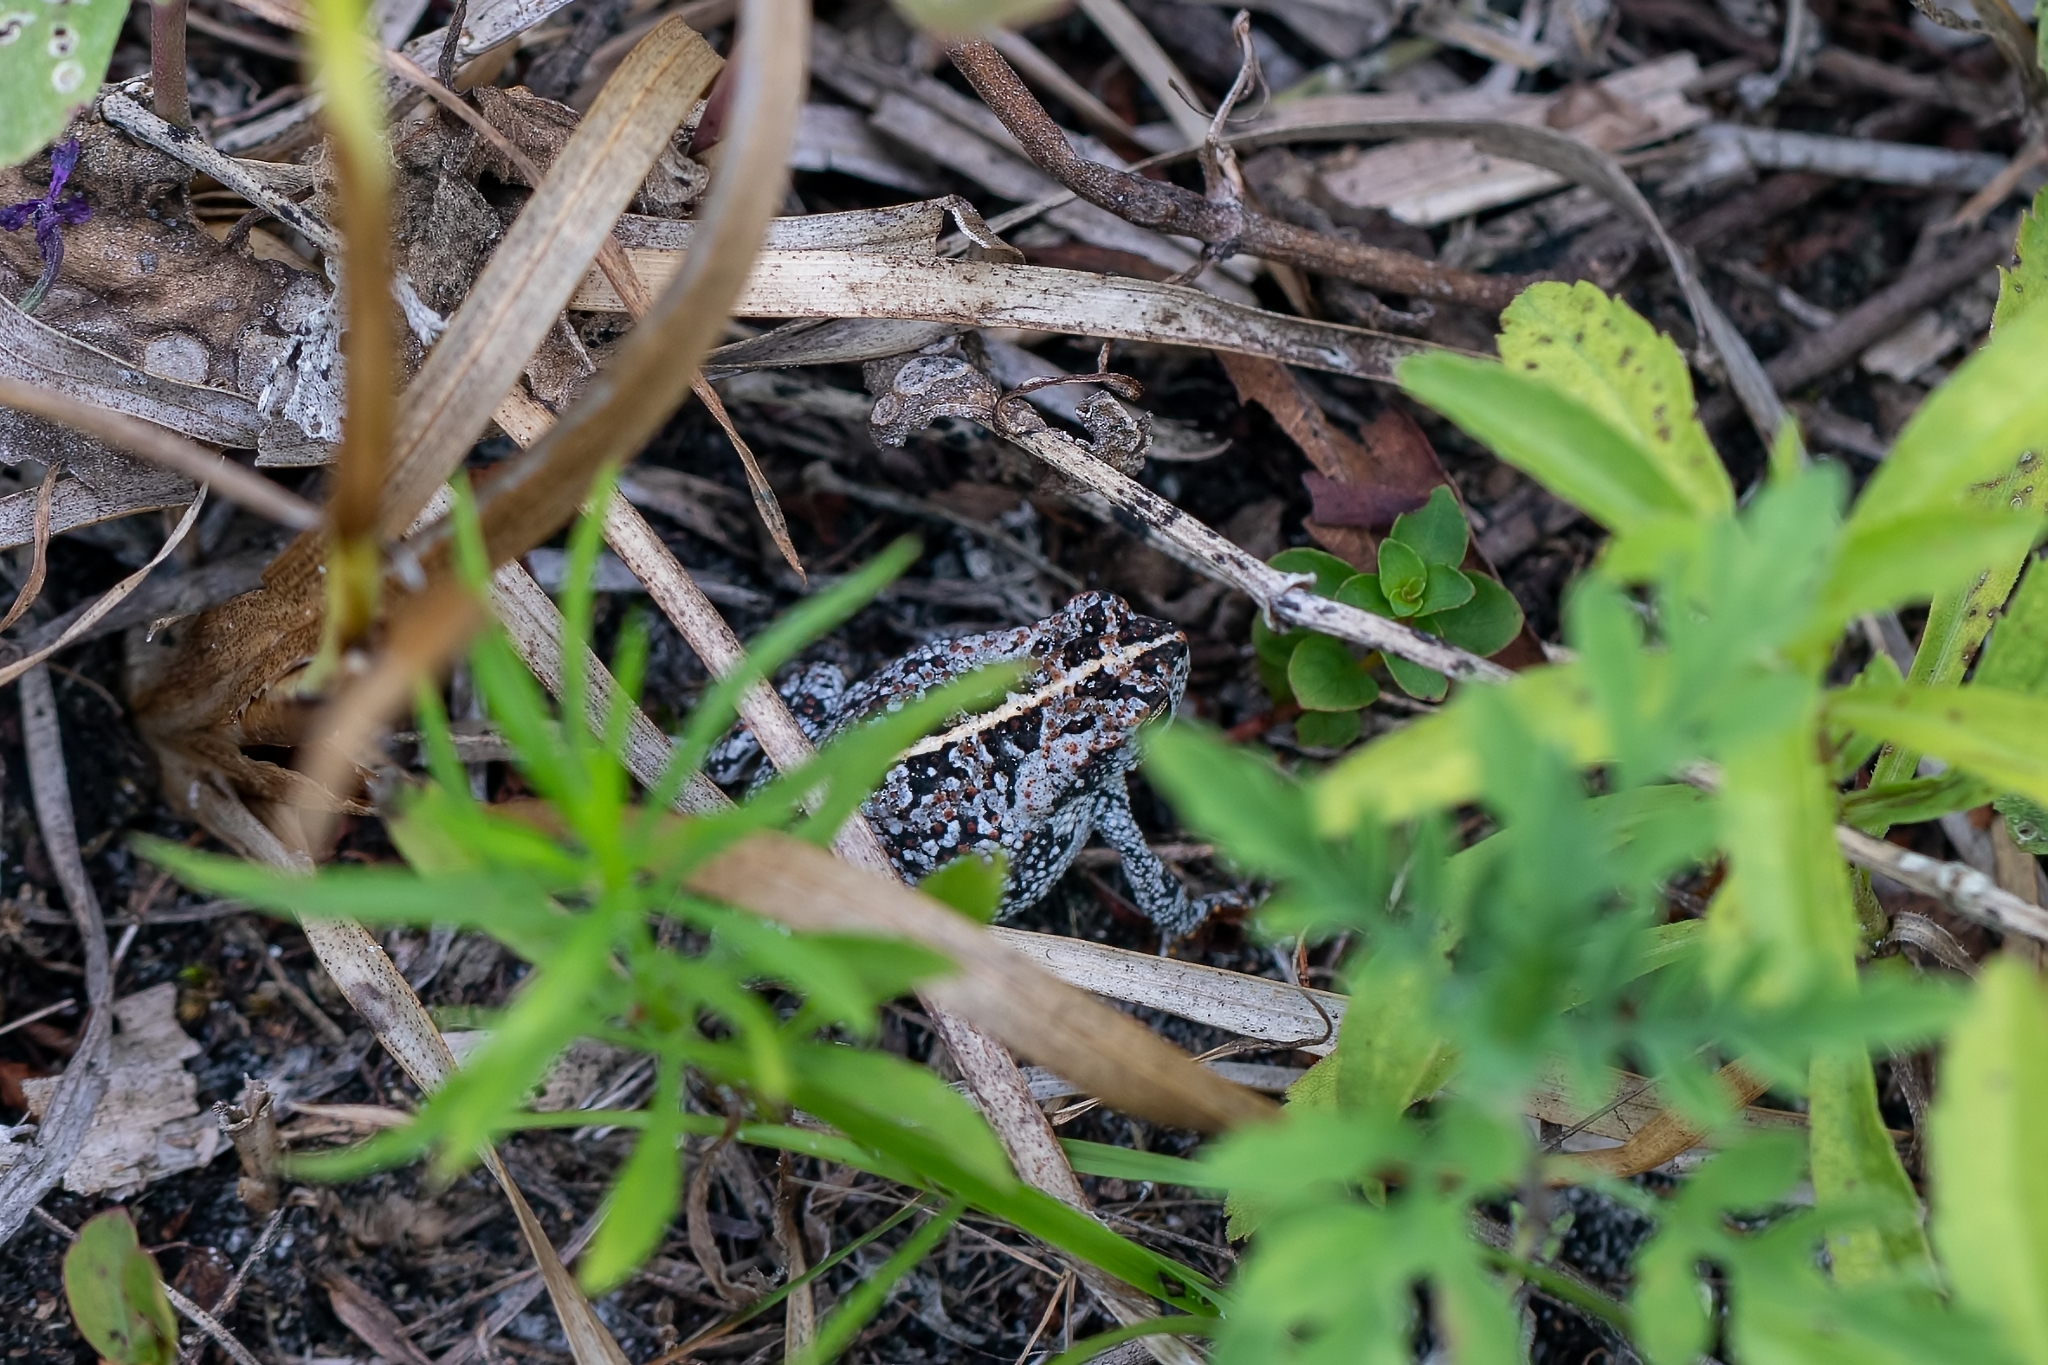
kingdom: Animalia
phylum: Chordata
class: Amphibia
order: Anura
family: Bufonidae
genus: Anaxyrus
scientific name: Anaxyrus quercicus
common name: Oak toad
